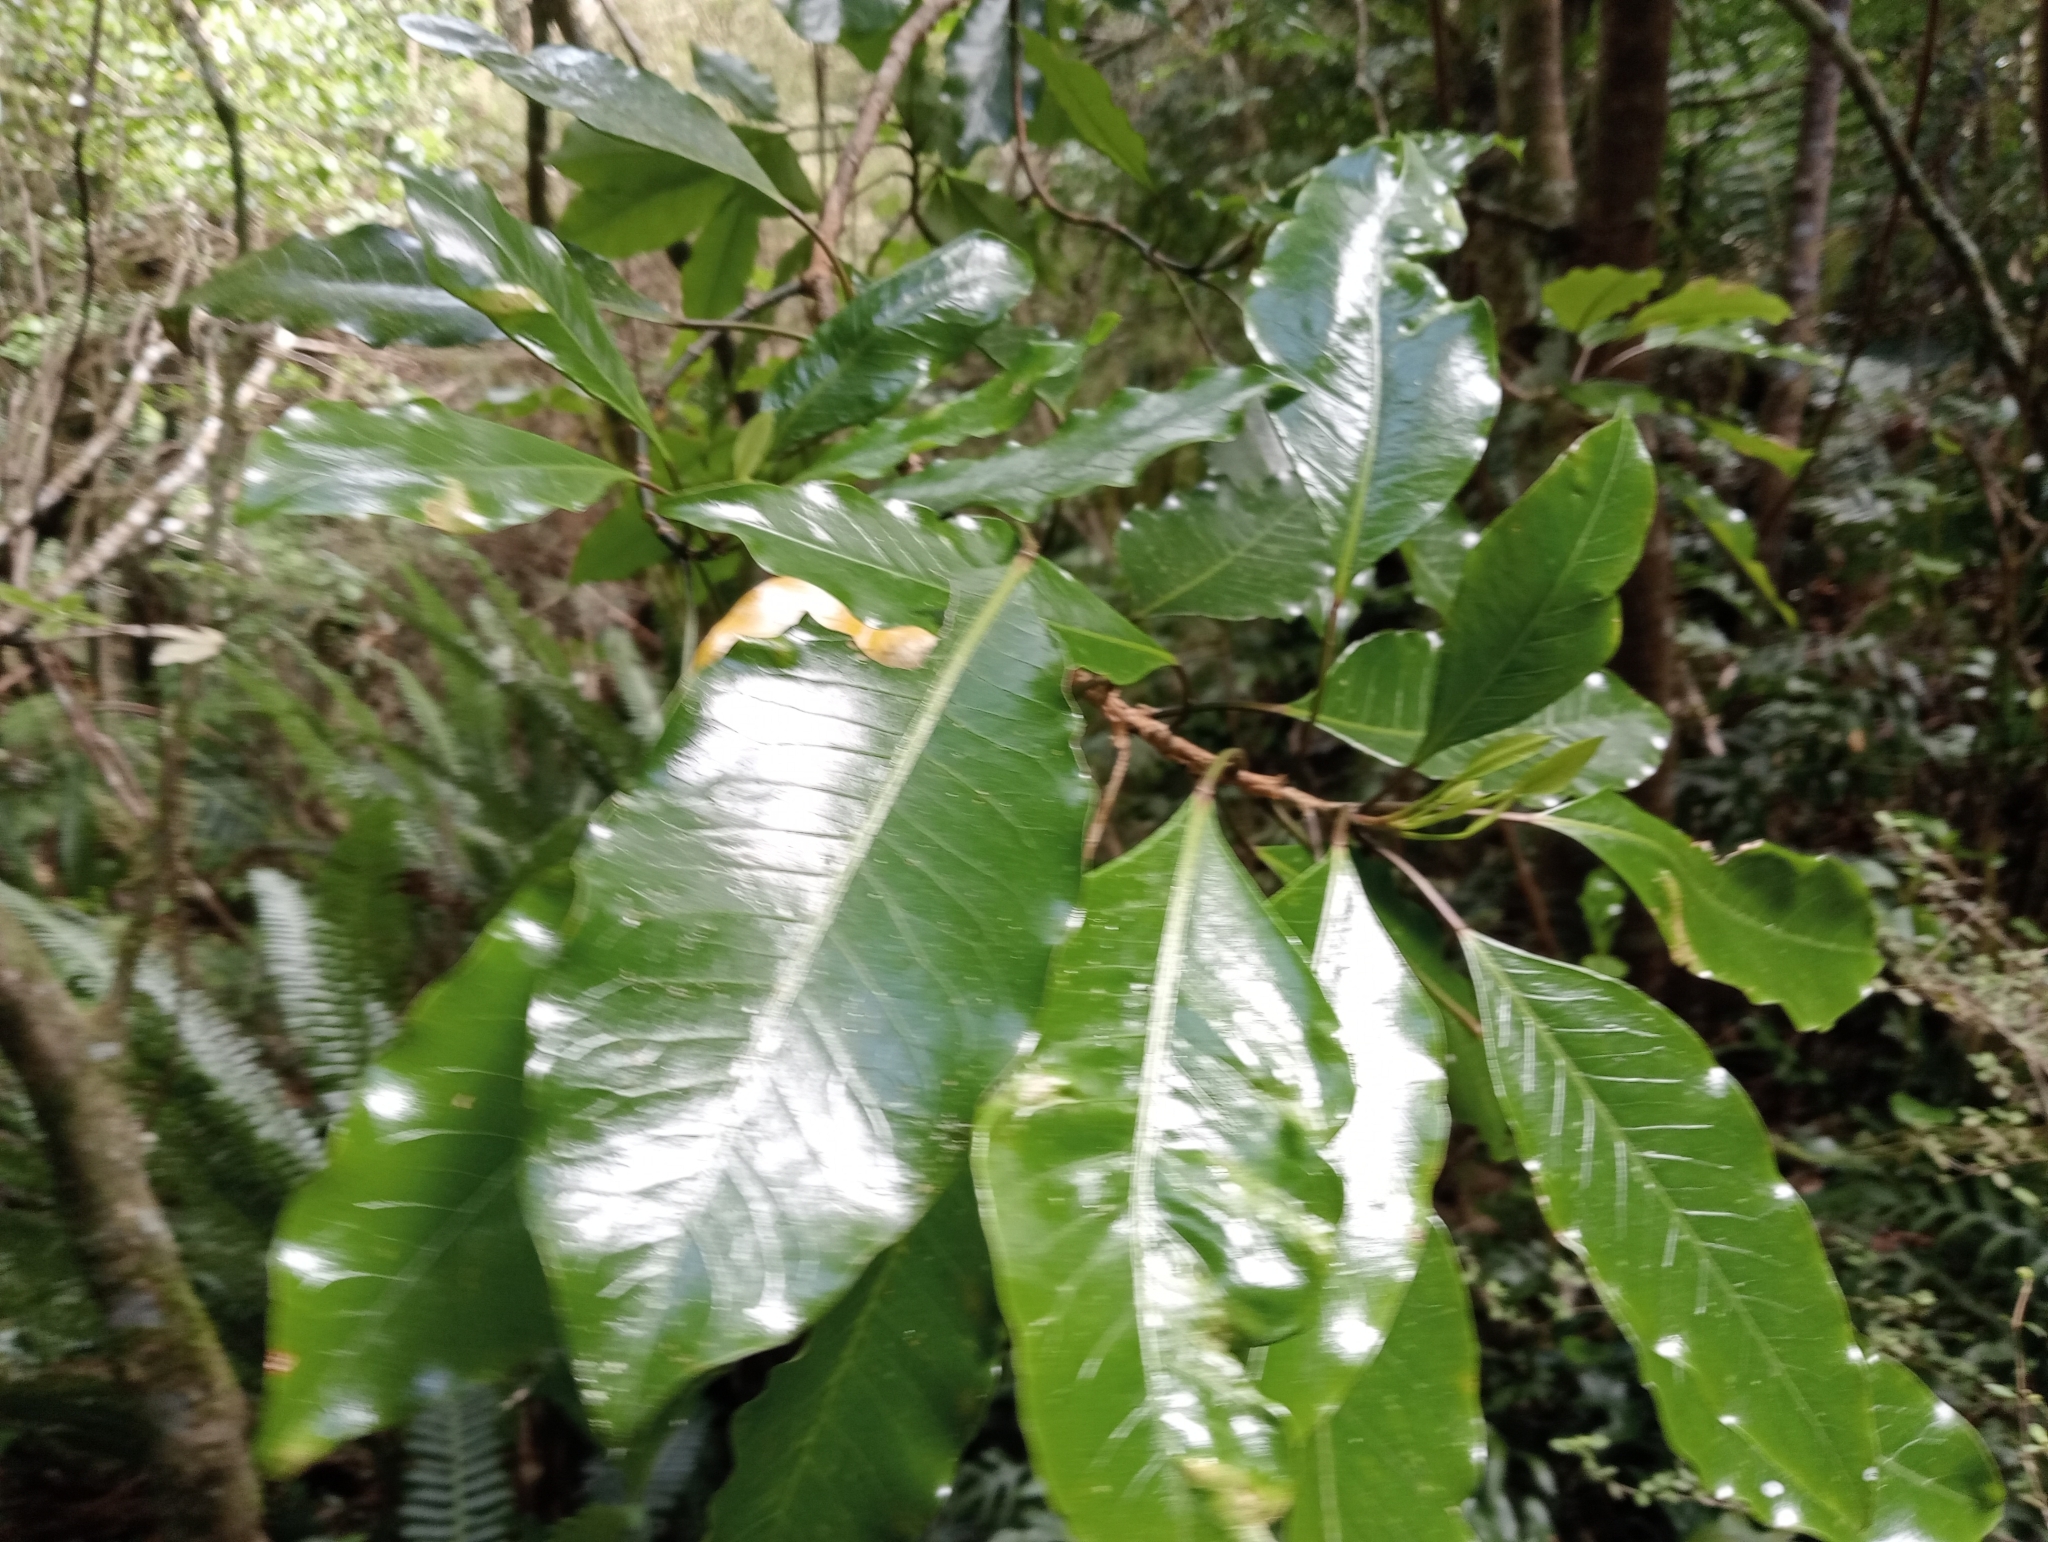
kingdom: Plantae
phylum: Tracheophyta
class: Magnoliopsida
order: Apiales
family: Araliaceae
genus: Raukaua
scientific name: Raukaua edgerleyi
